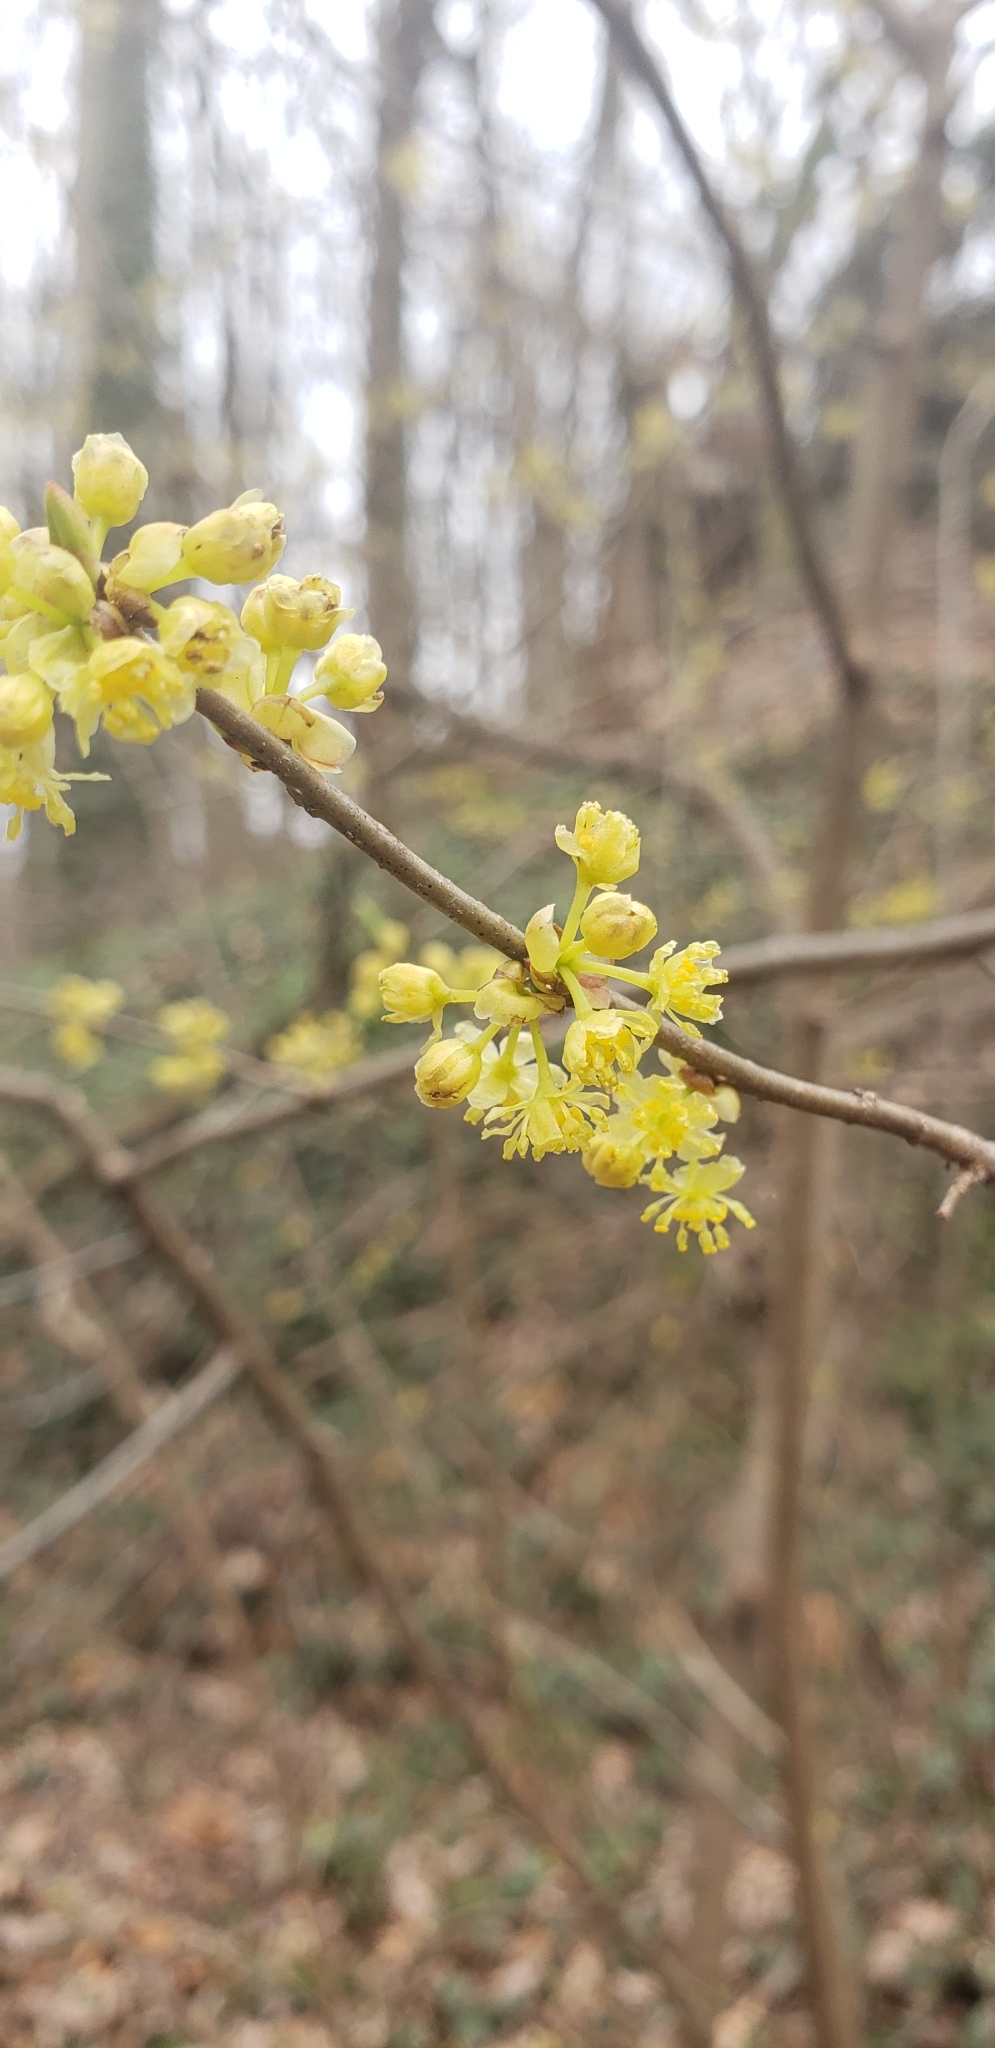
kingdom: Plantae
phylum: Tracheophyta
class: Magnoliopsida
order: Laurales
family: Lauraceae
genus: Lindera
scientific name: Lindera benzoin
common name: Spicebush
